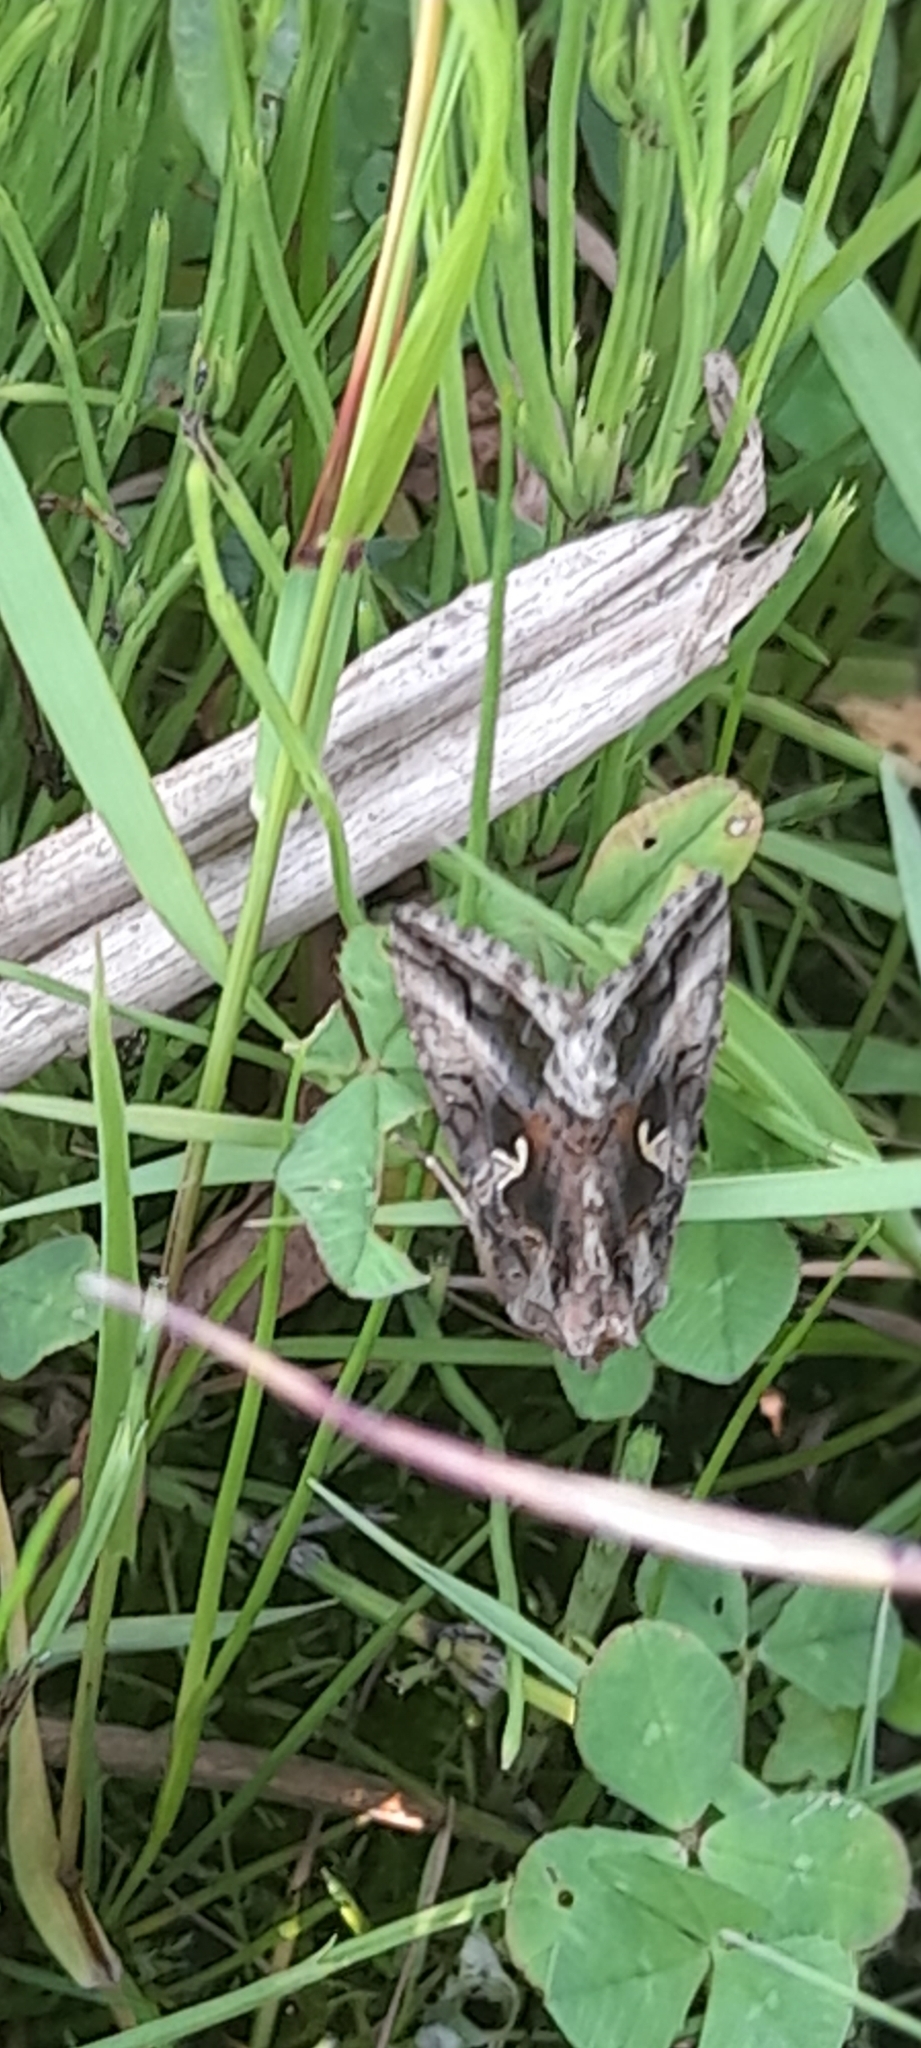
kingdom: Animalia
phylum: Arthropoda
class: Insecta
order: Lepidoptera
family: Noctuidae
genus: Autographa
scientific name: Autographa gamma
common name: Silver y
